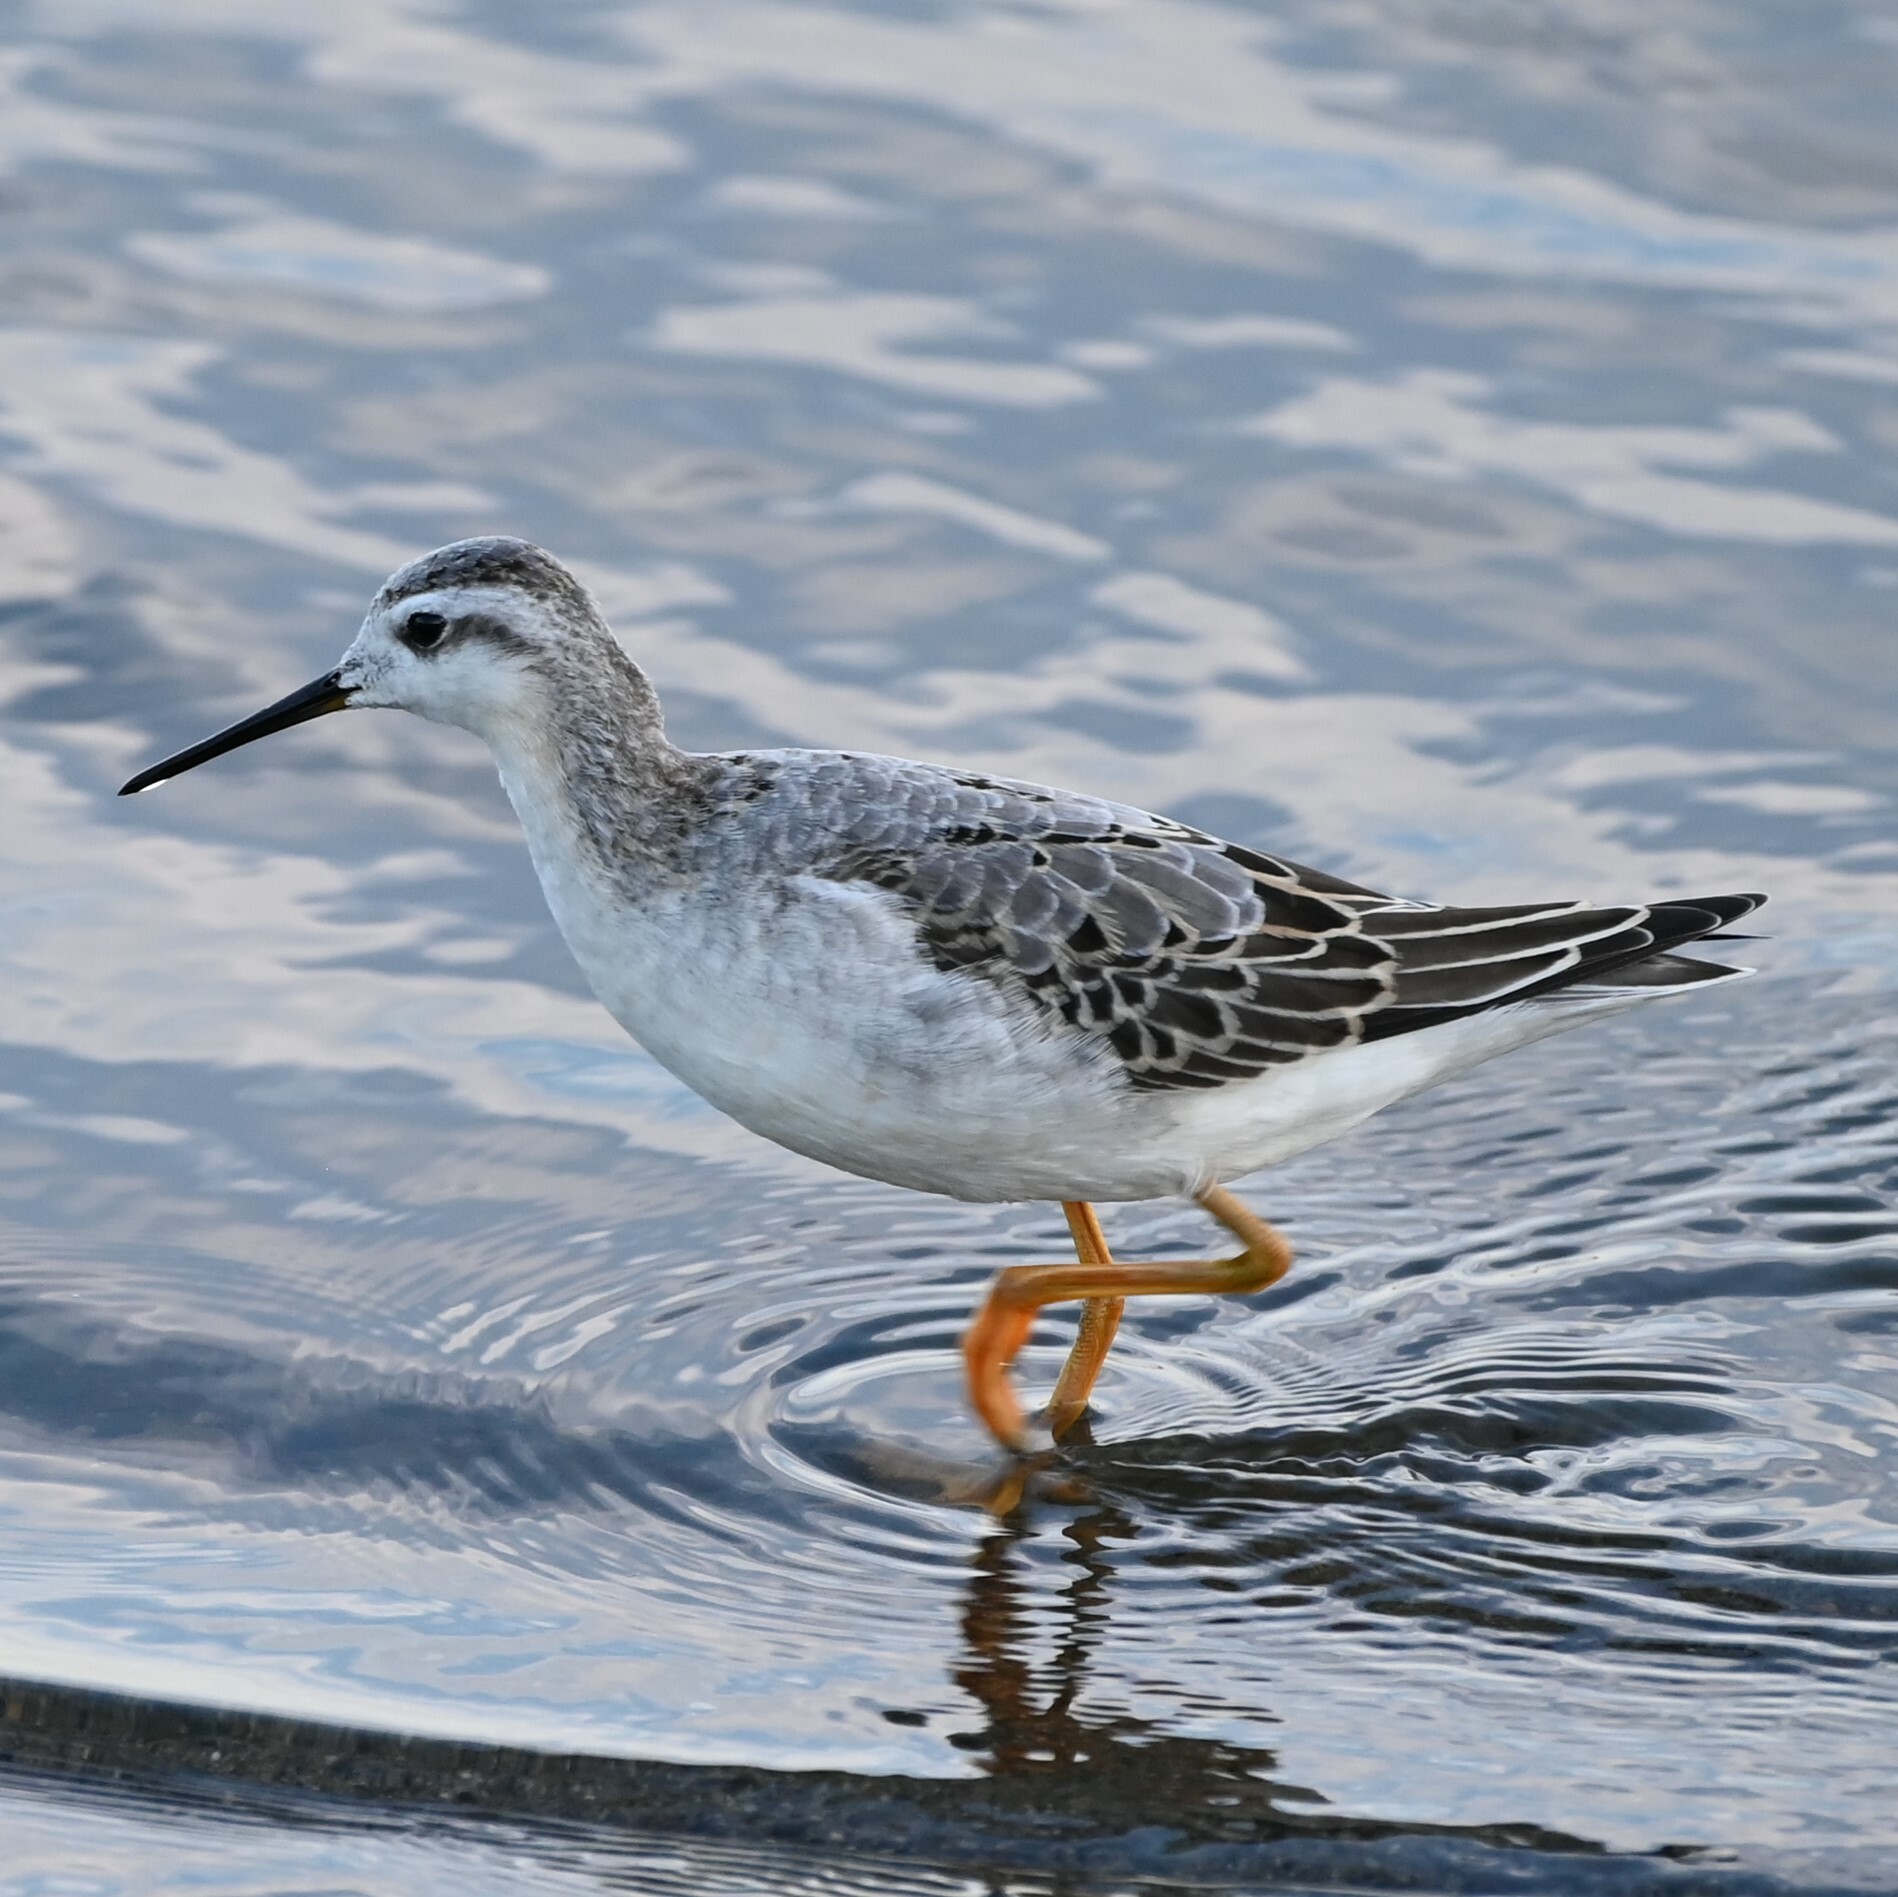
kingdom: Animalia
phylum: Chordata
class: Aves
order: Charadriiformes
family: Scolopacidae
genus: Phalaropus
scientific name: Phalaropus tricolor
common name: Wilson's phalarope
